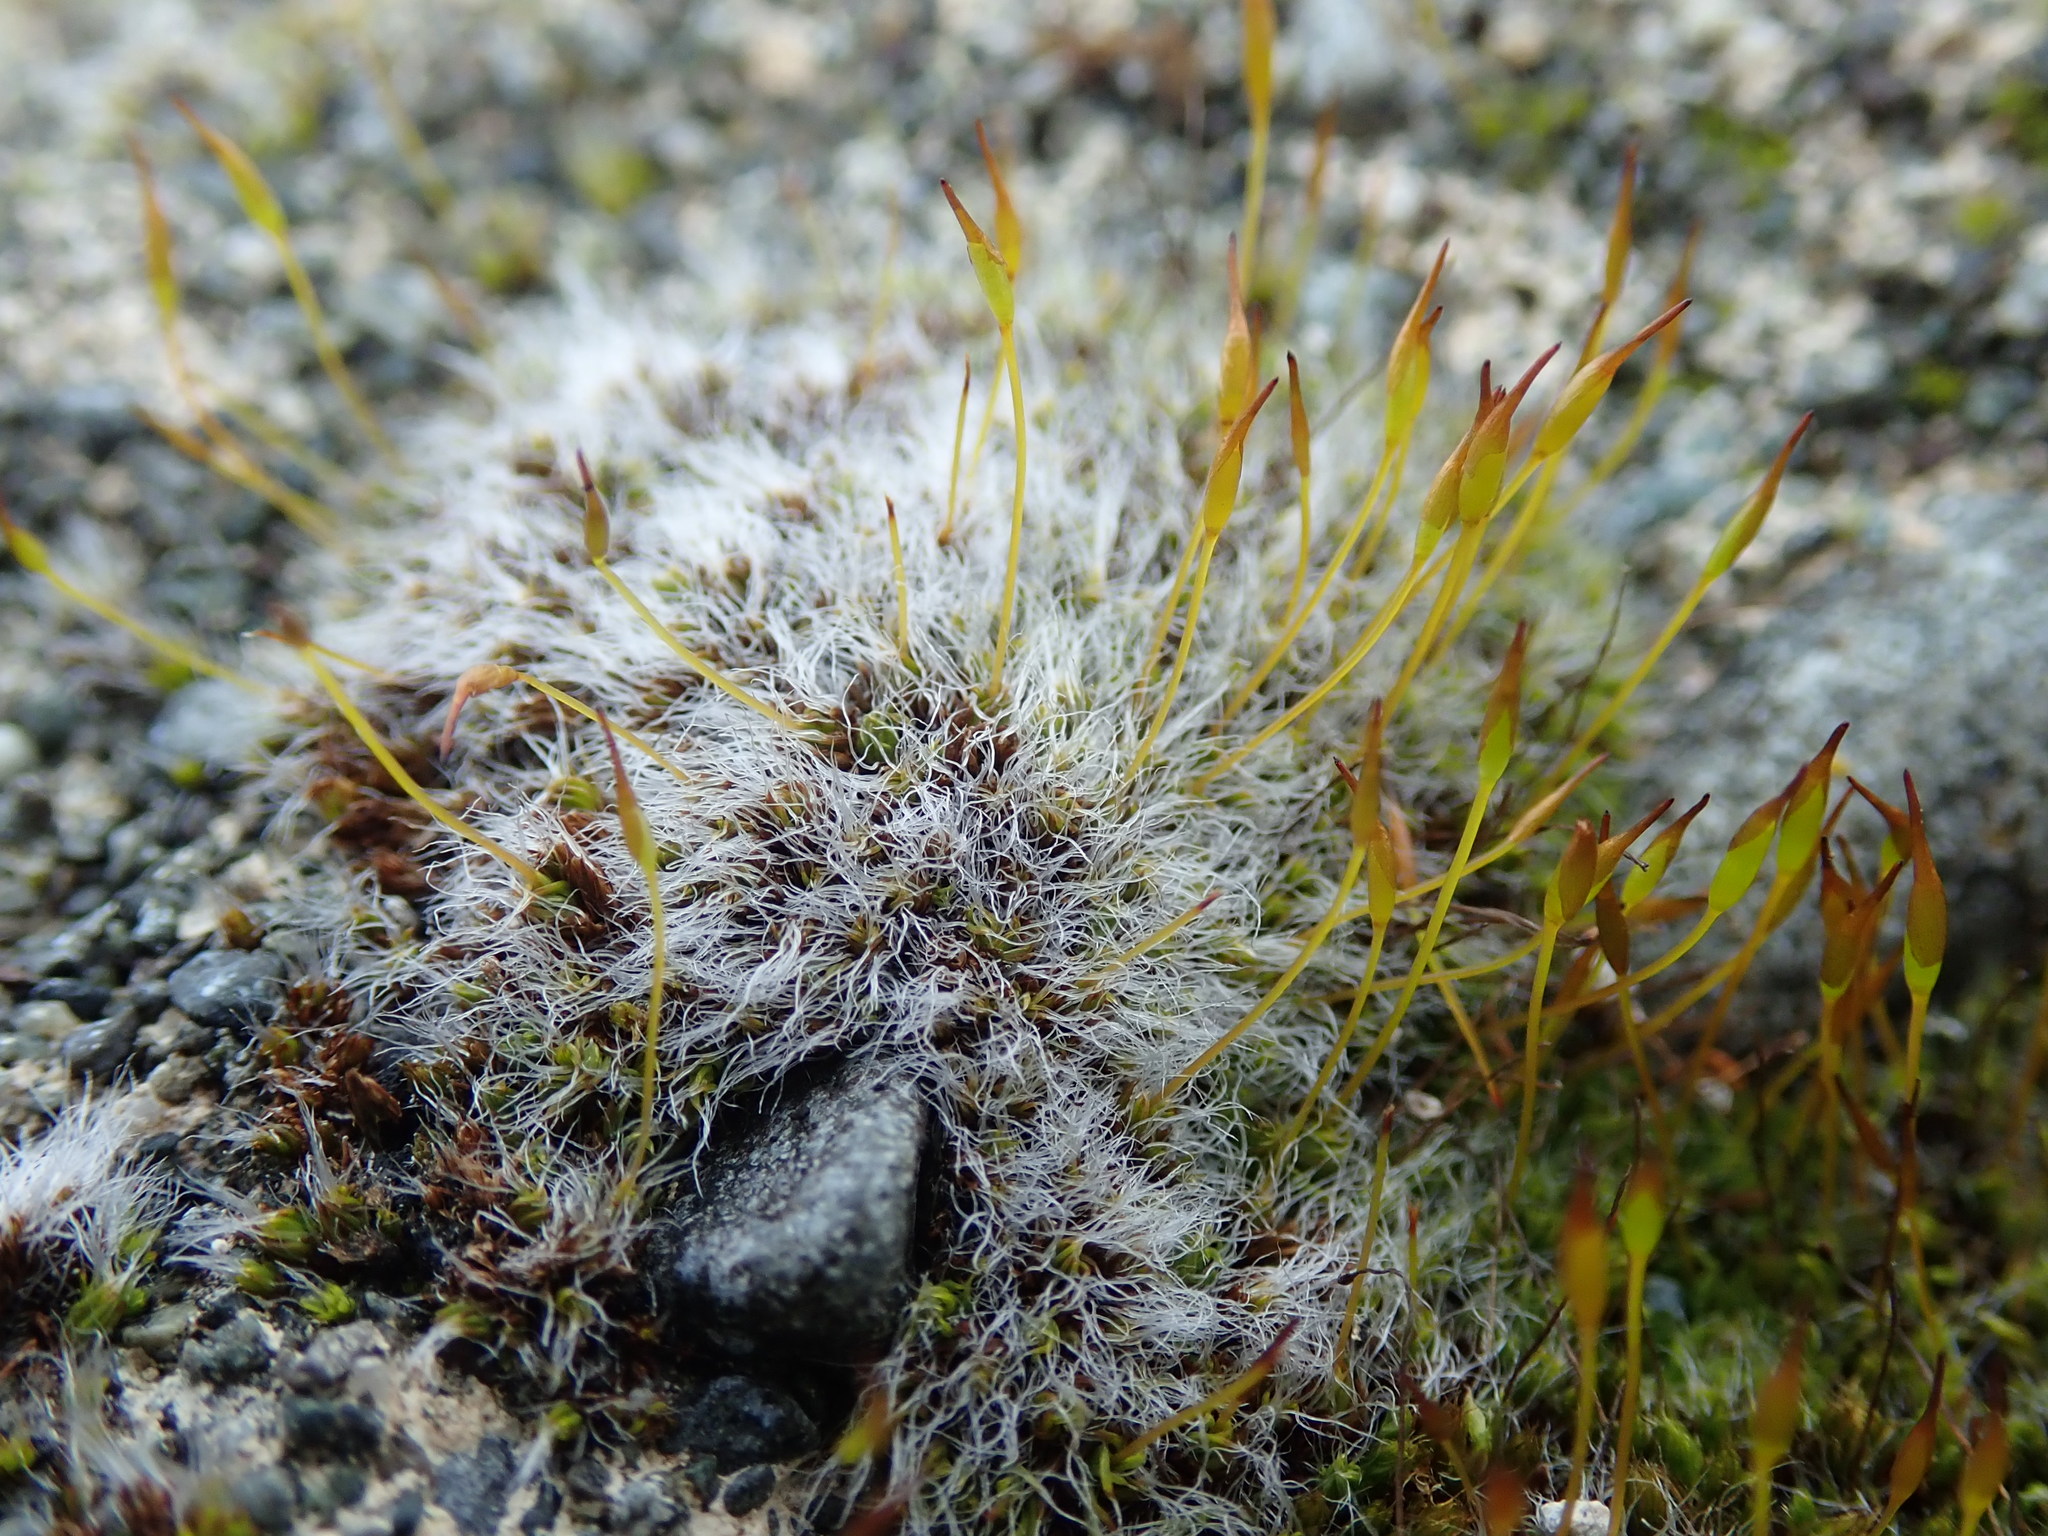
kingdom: Plantae
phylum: Bryophyta
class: Bryopsida
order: Pottiales
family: Pottiaceae
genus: Tortula
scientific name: Tortula muralis
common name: Wall screw-moss
